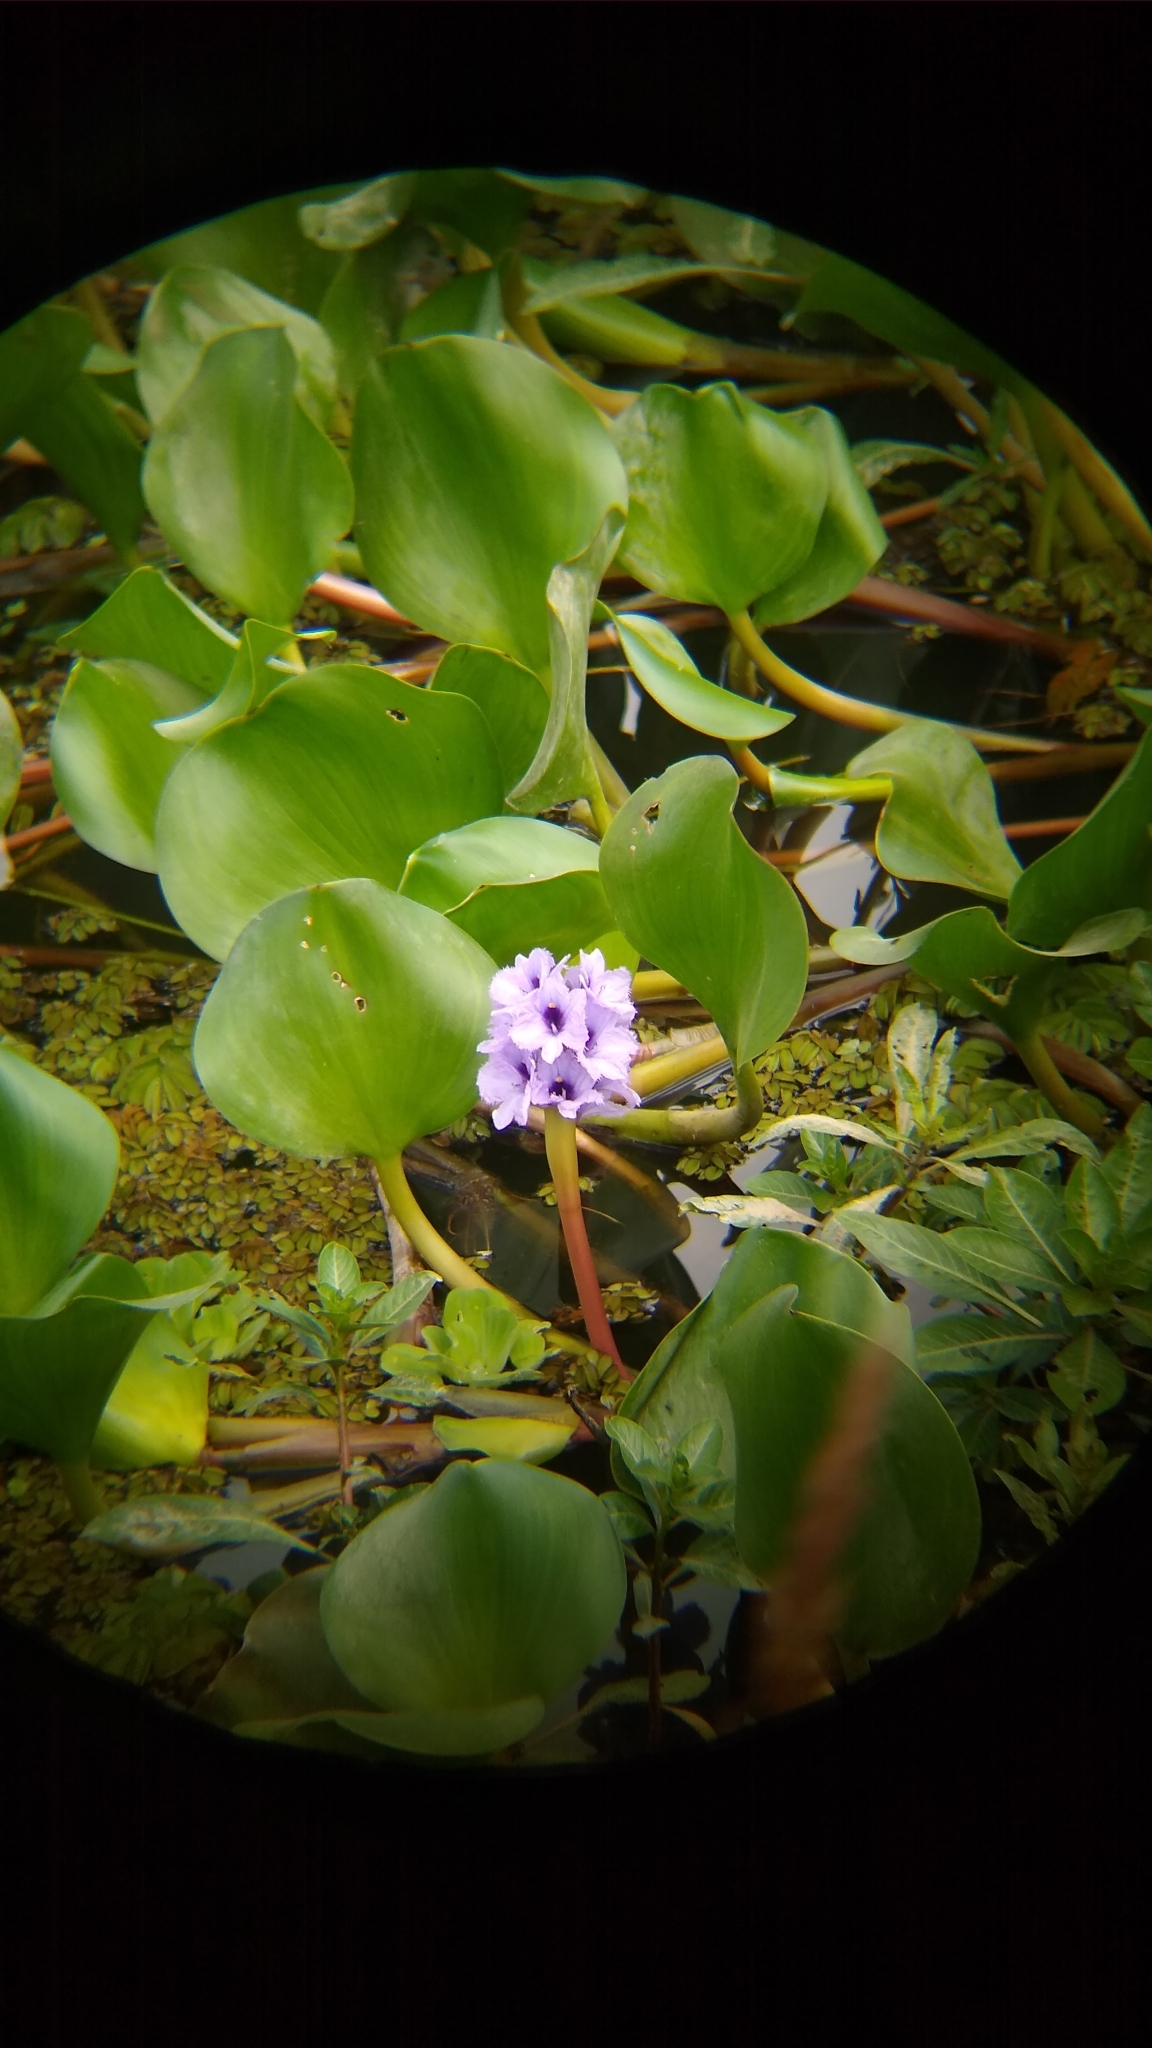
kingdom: Plantae
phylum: Tracheophyta
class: Liliopsida
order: Commelinales
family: Pontederiaceae
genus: Pontederia
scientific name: Pontederia azurea
